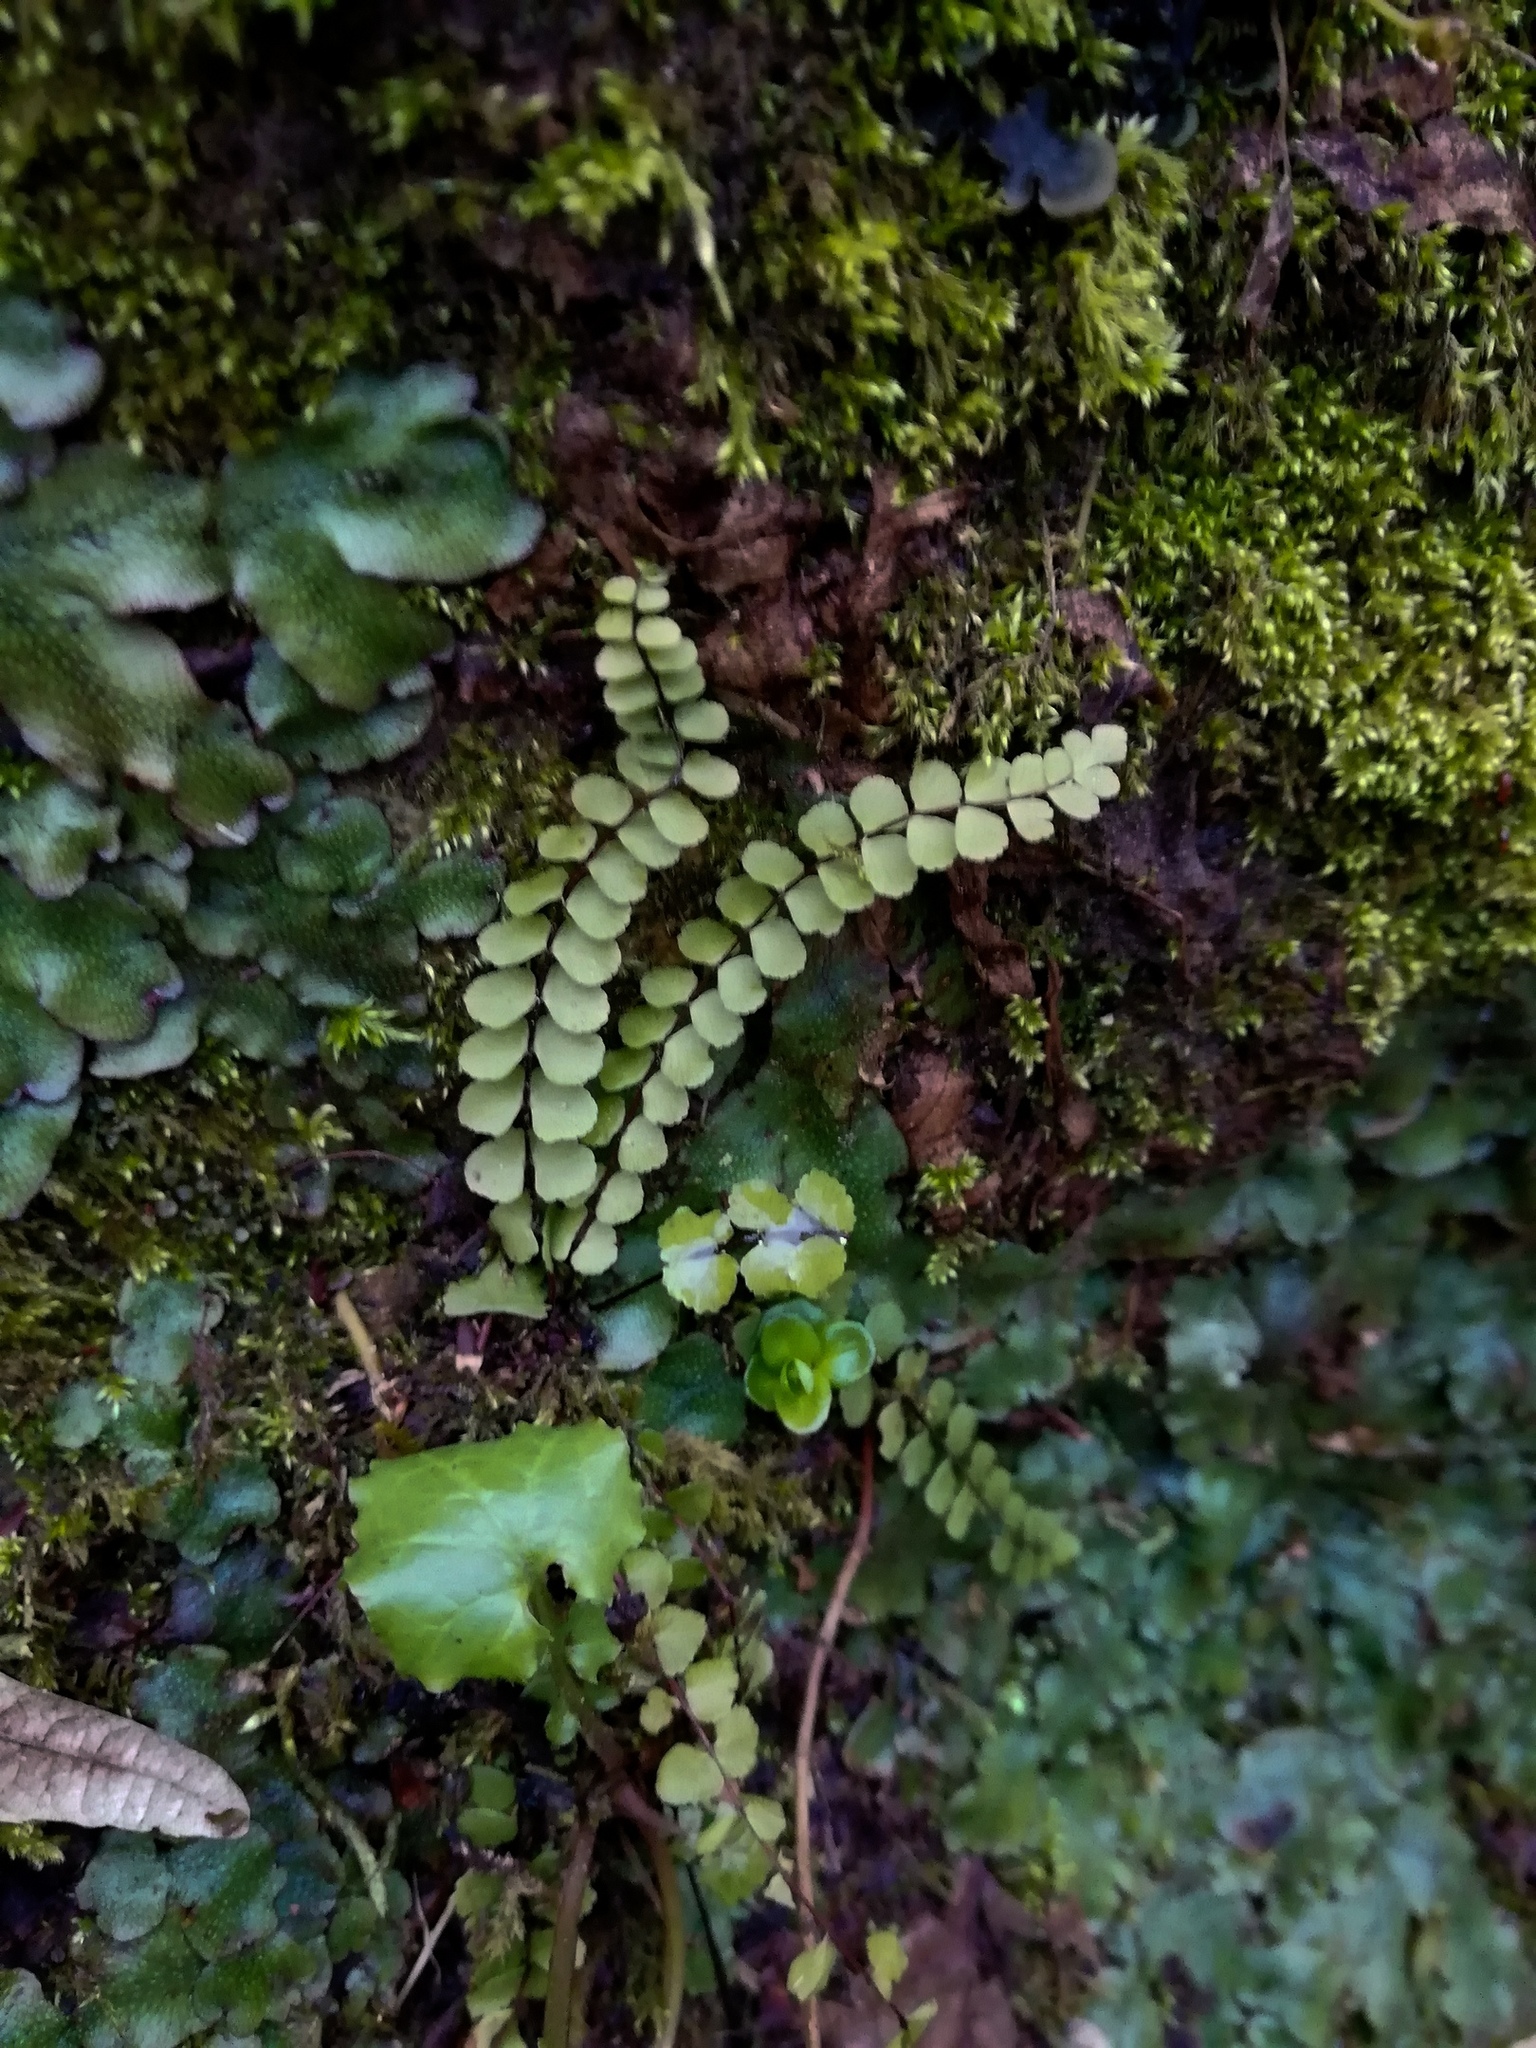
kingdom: Plantae
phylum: Tracheophyta
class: Polypodiopsida
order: Polypodiales
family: Aspleniaceae
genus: Asplenium
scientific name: Asplenium trichomanes
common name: Maidenhair spleenwort
